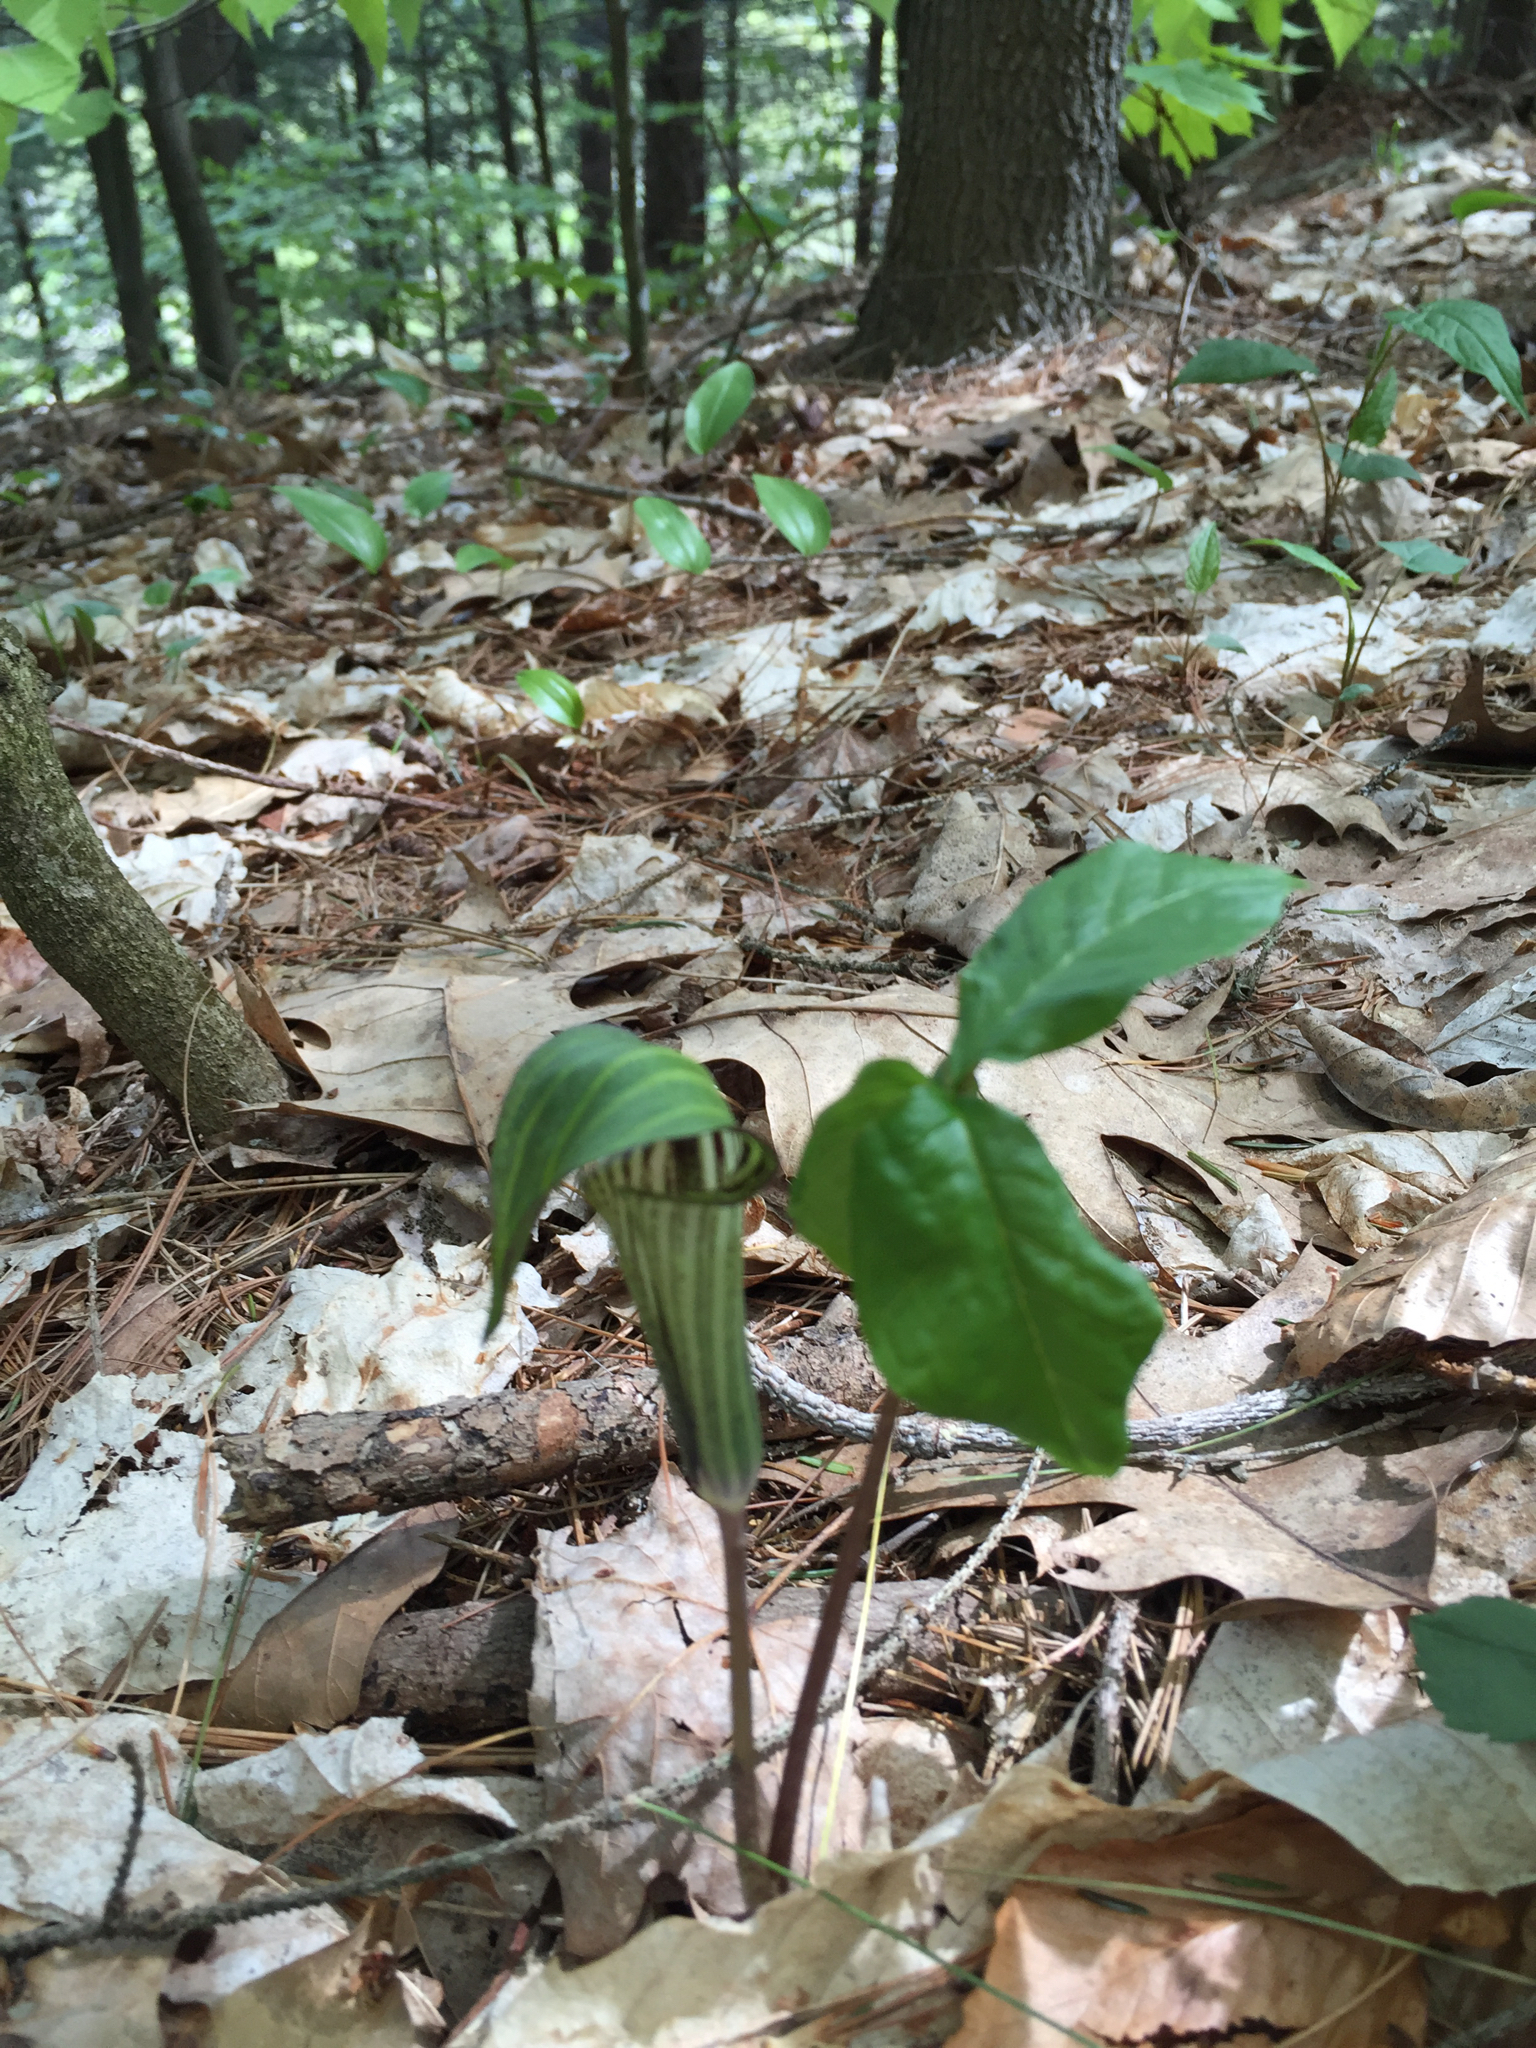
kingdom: Plantae
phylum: Tracheophyta
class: Liliopsida
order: Alismatales
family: Araceae
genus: Arisaema
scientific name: Arisaema triphyllum
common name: Jack-in-the-pulpit
